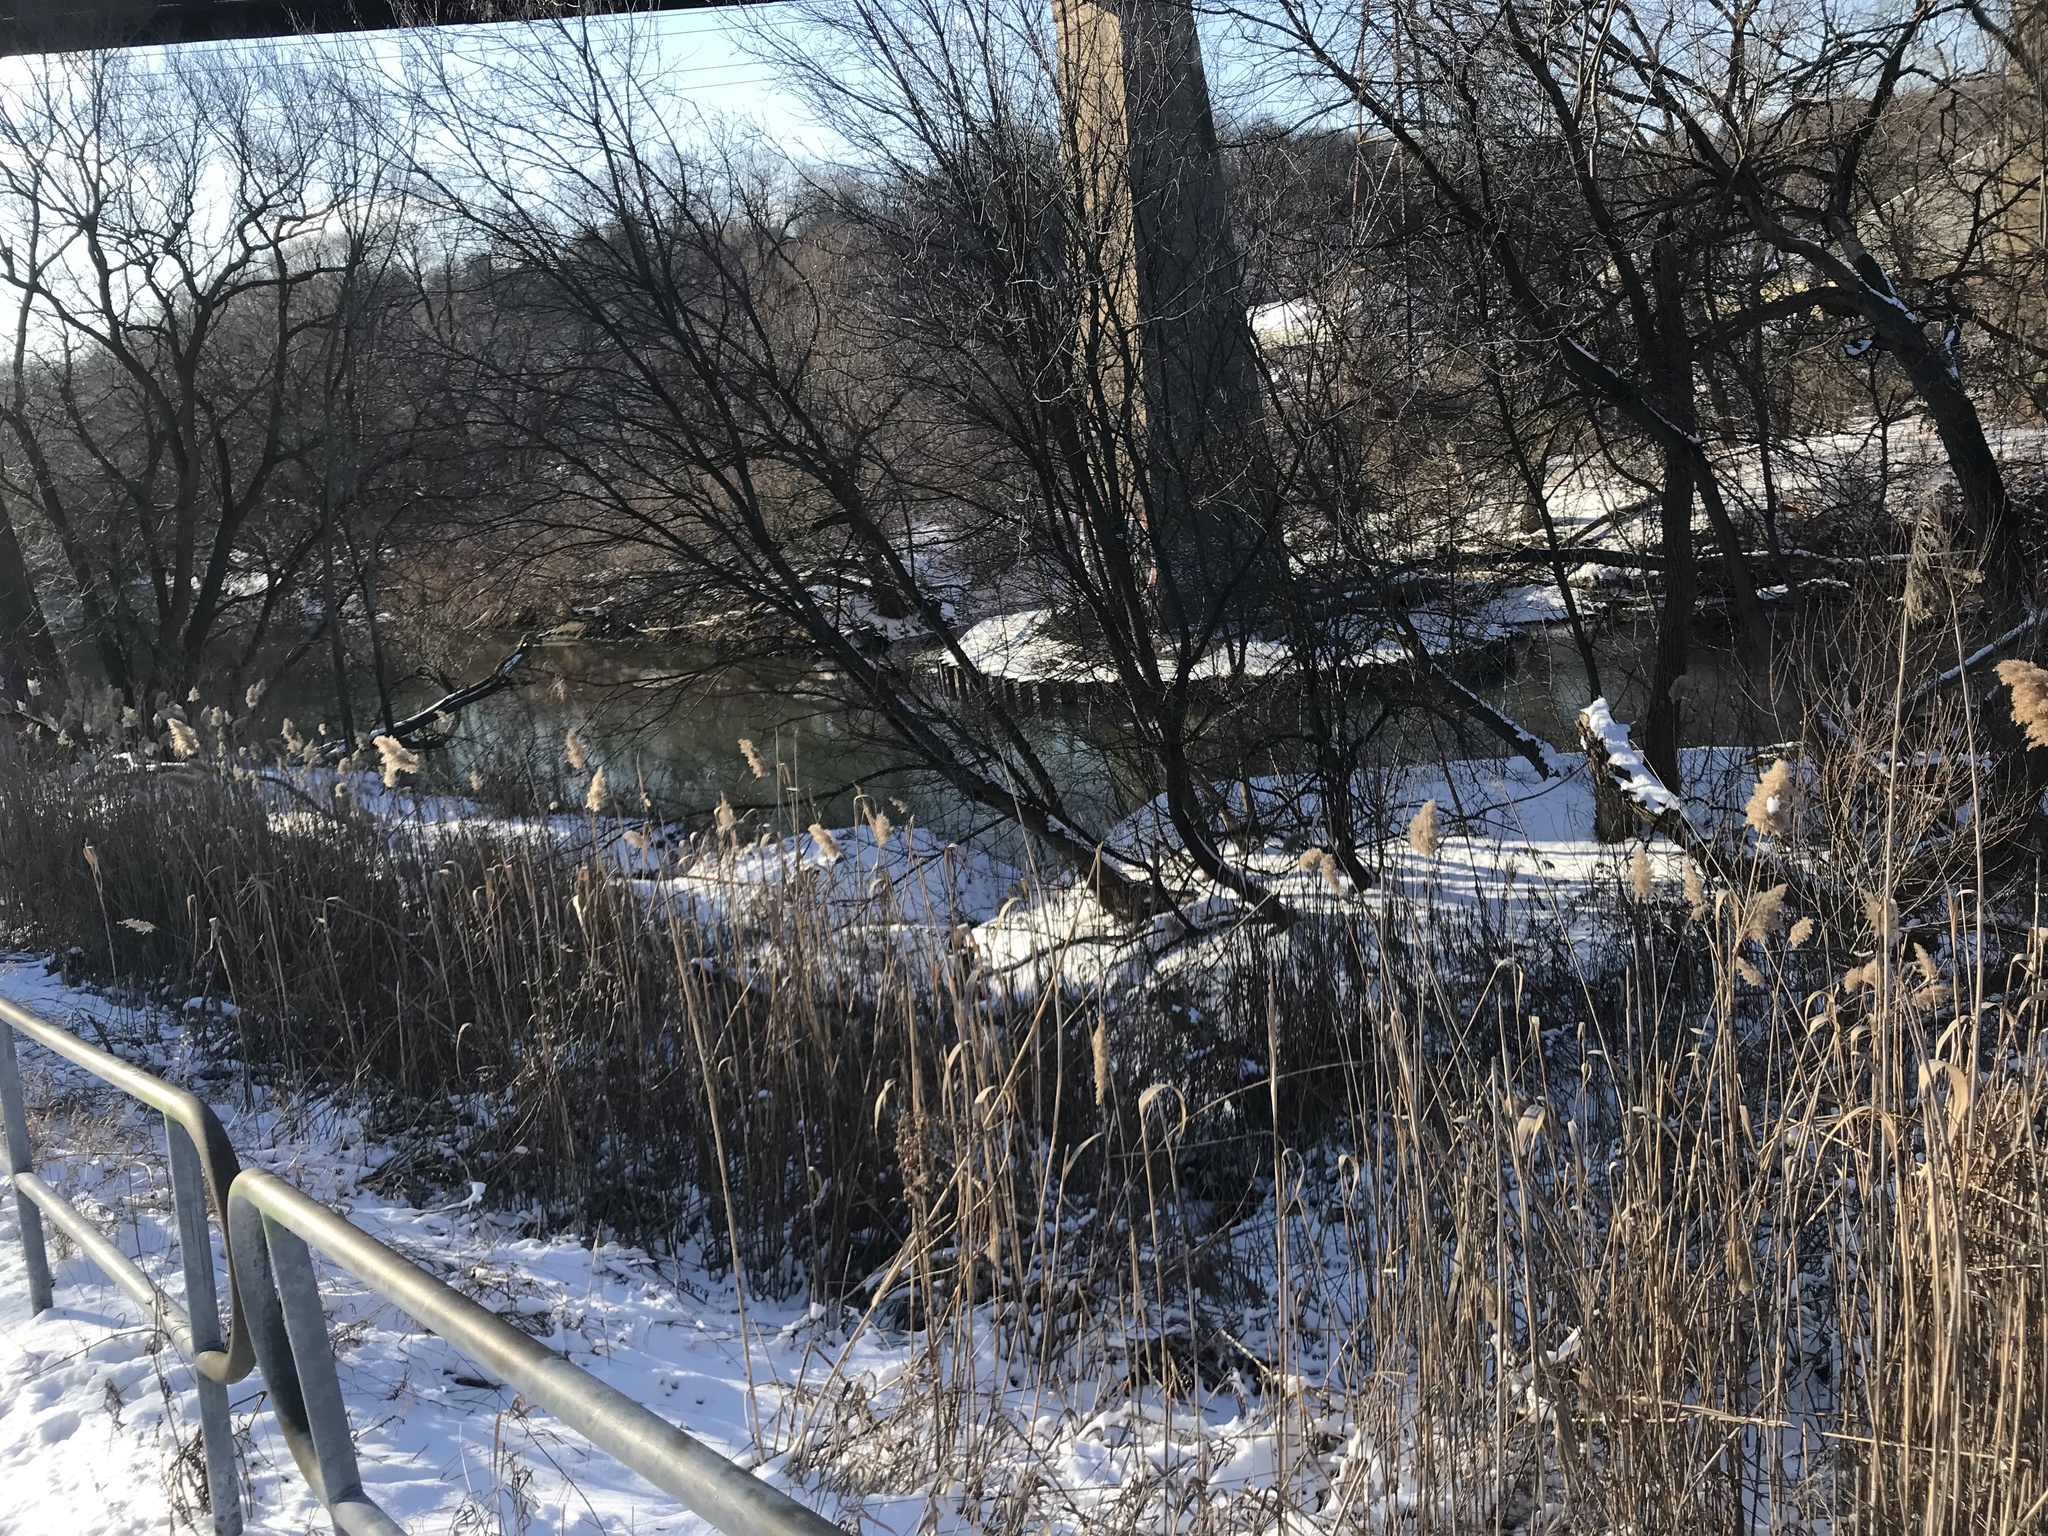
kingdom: Plantae
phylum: Tracheophyta
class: Liliopsida
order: Poales
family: Poaceae
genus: Phragmites
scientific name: Phragmites australis
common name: Common reed
